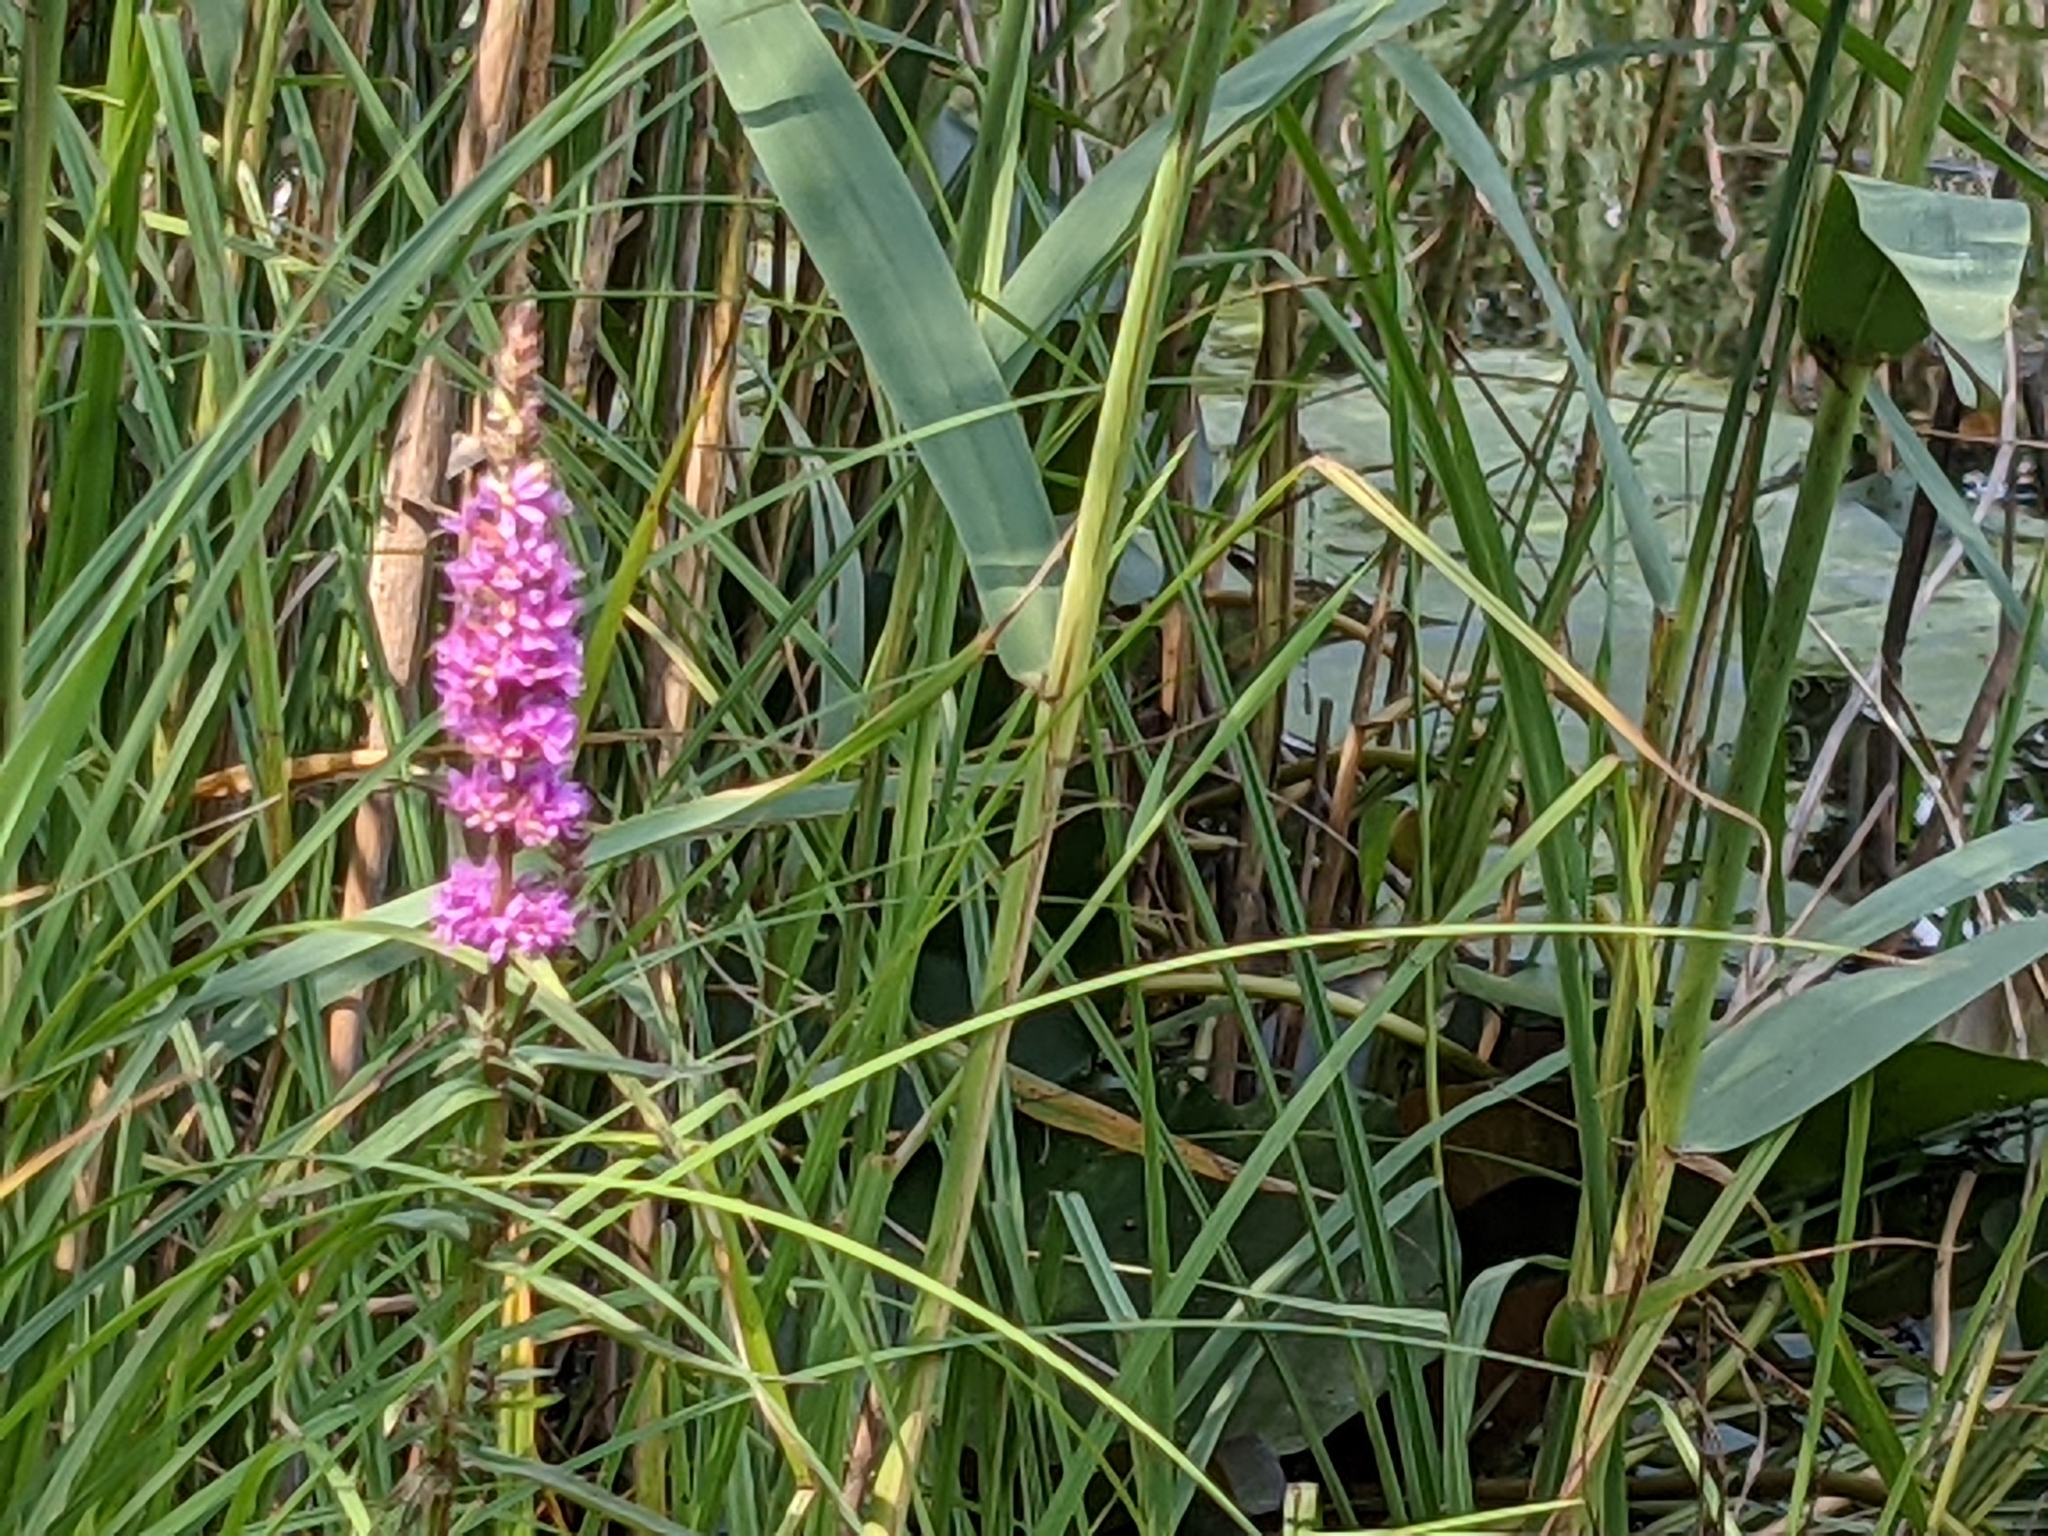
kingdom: Plantae
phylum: Tracheophyta
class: Magnoliopsida
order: Myrtales
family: Lythraceae
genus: Lythrum
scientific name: Lythrum salicaria
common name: Purple loosestrife
